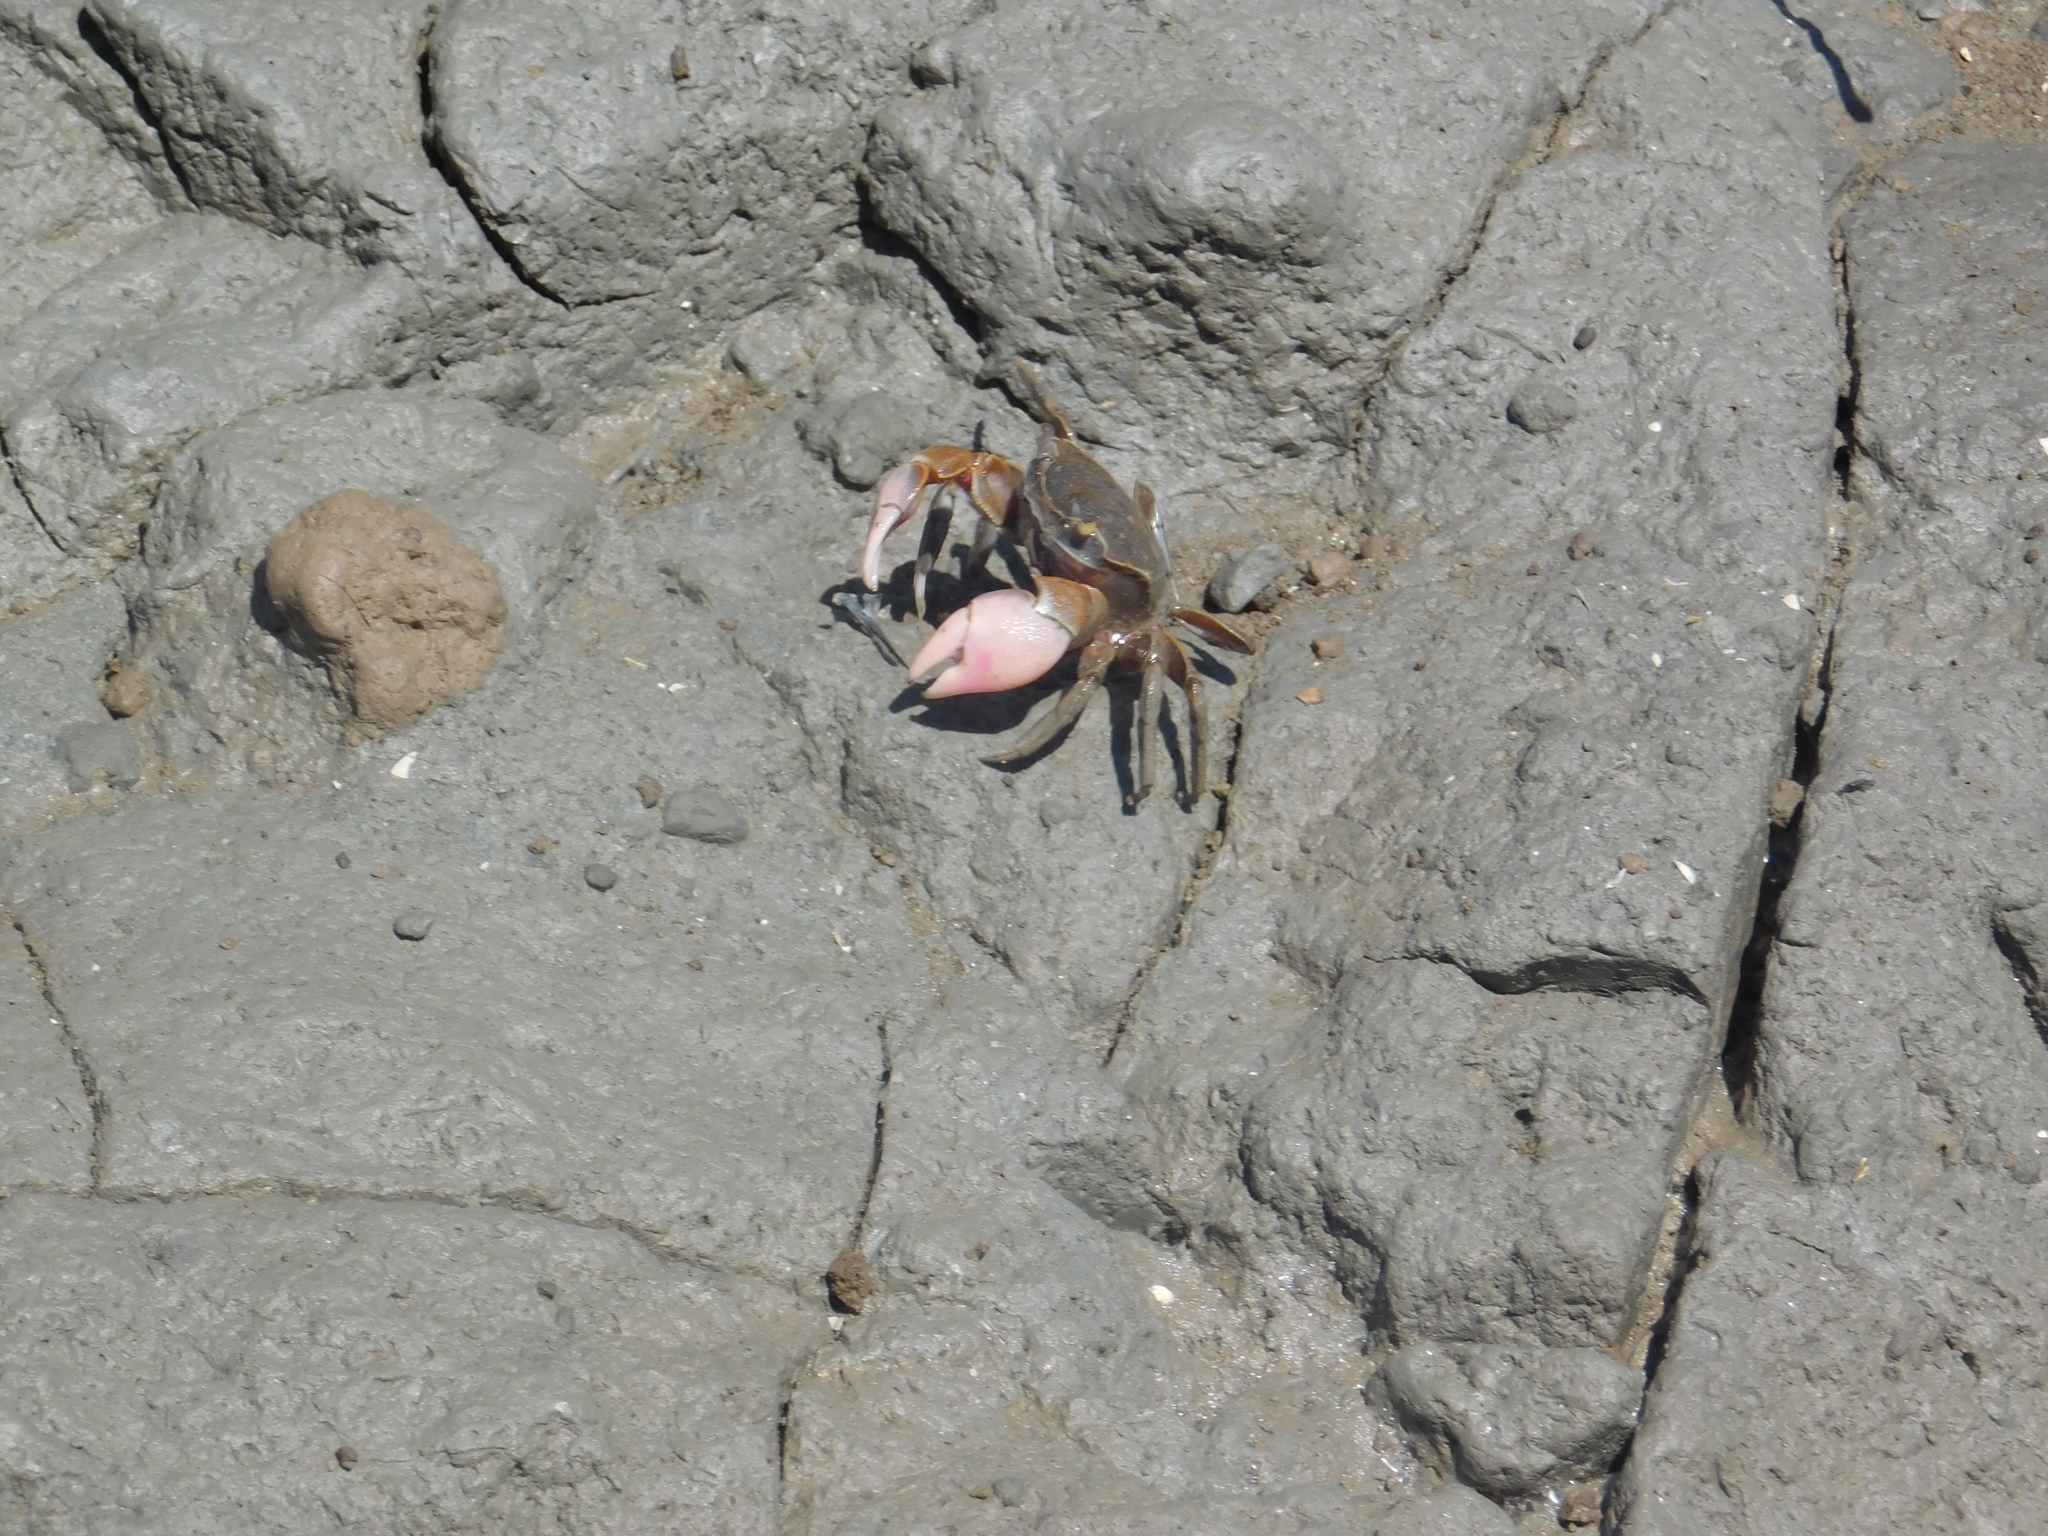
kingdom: Animalia
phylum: Arthropoda
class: Malacostraca
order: Decapoda
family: Varunidae
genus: Neohelice
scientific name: Neohelice granulata
